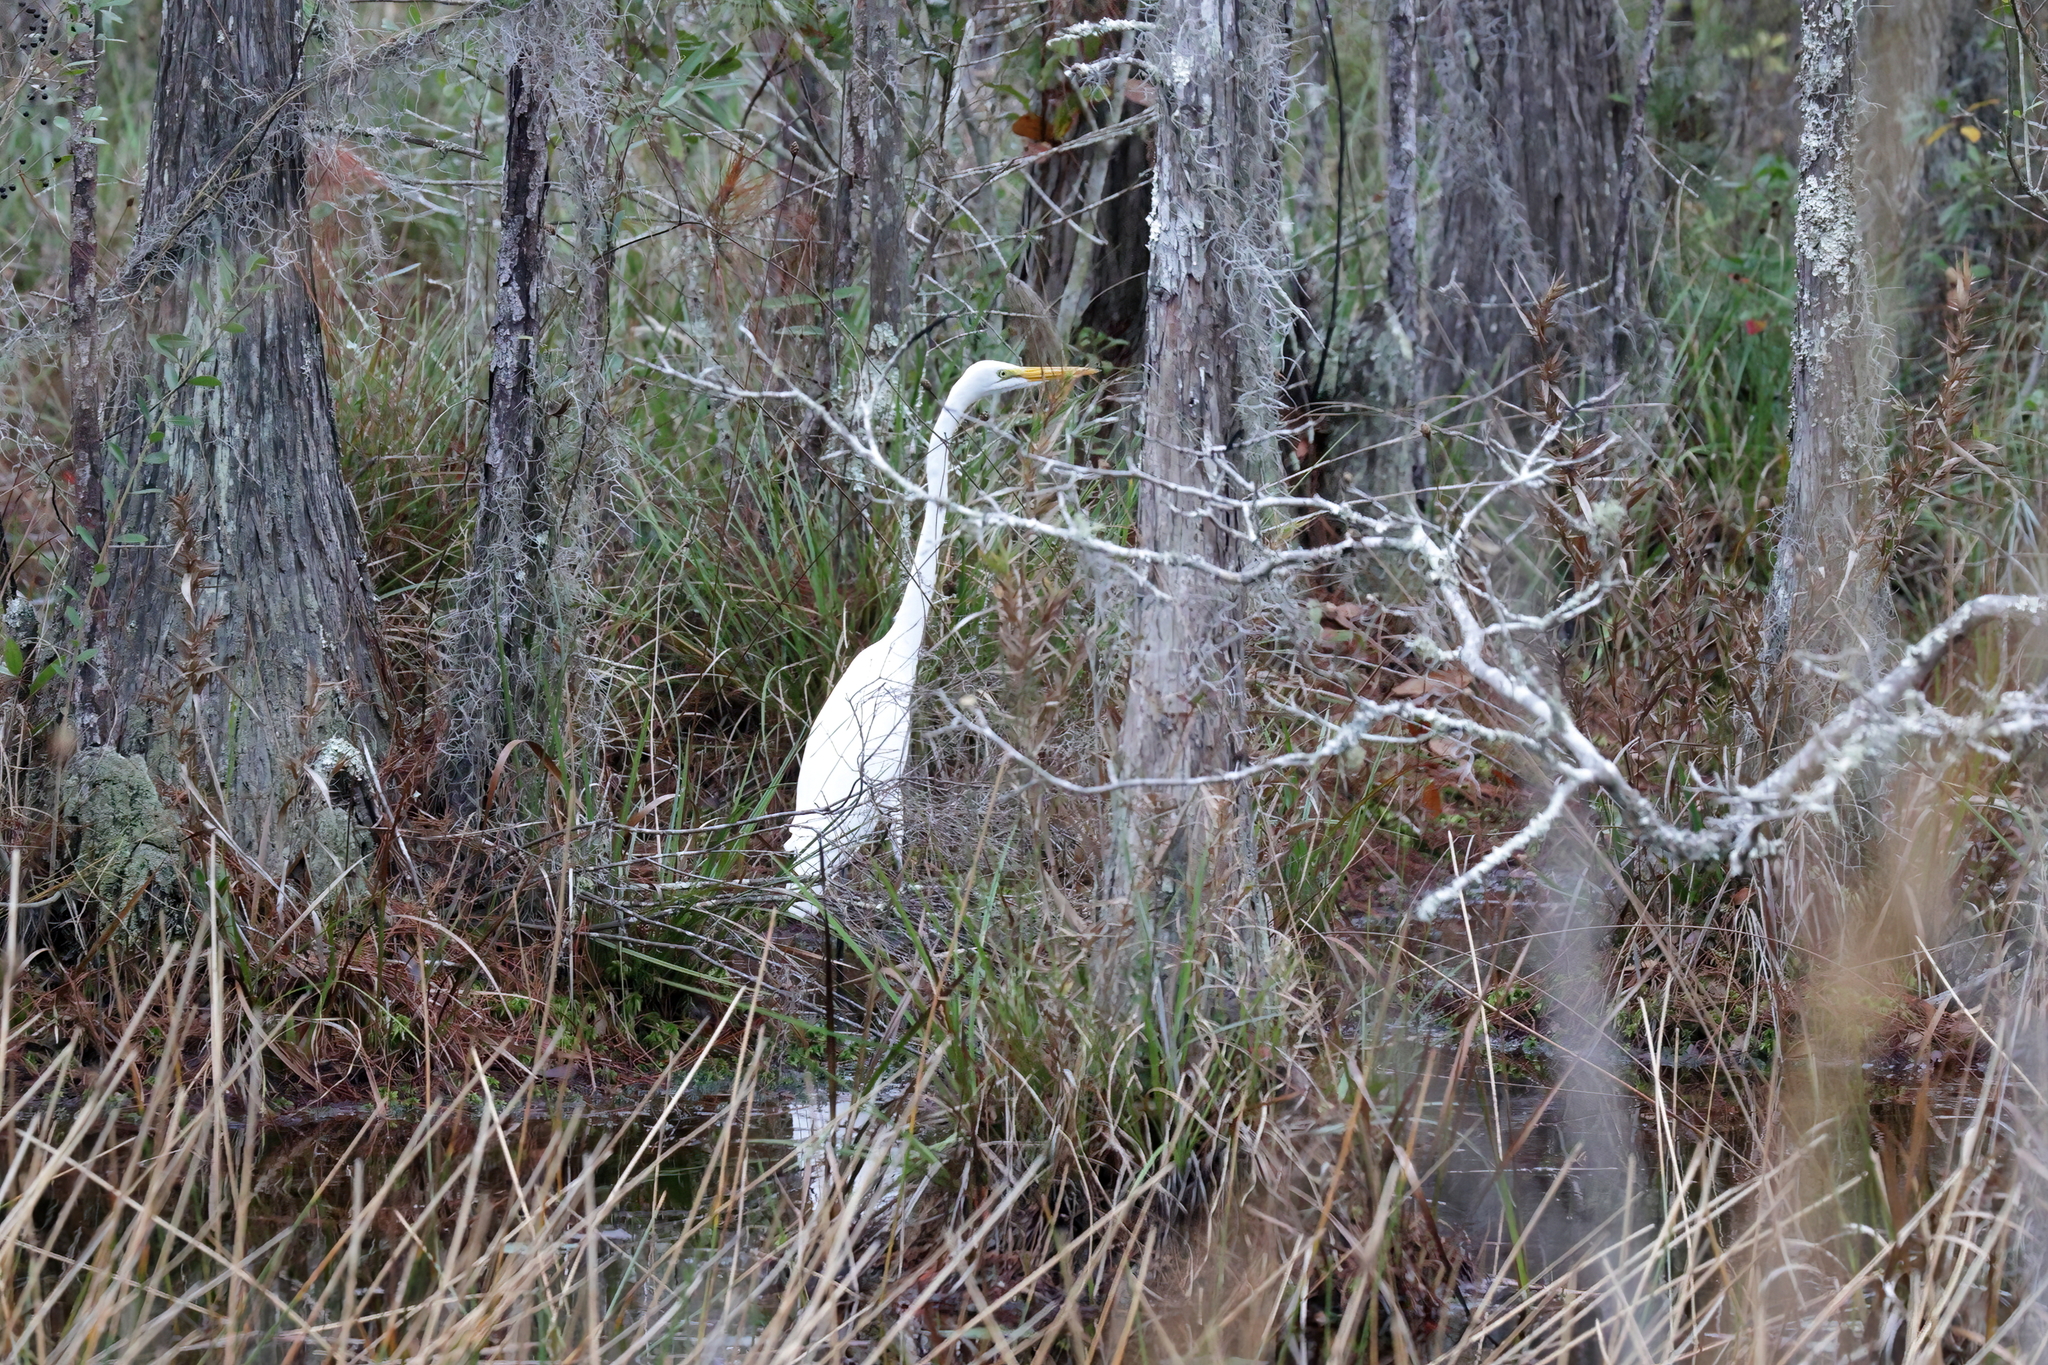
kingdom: Animalia
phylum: Chordata
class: Aves
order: Pelecaniformes
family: Ardeidae
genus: Ardea
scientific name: Ardea alba
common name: Great egret
